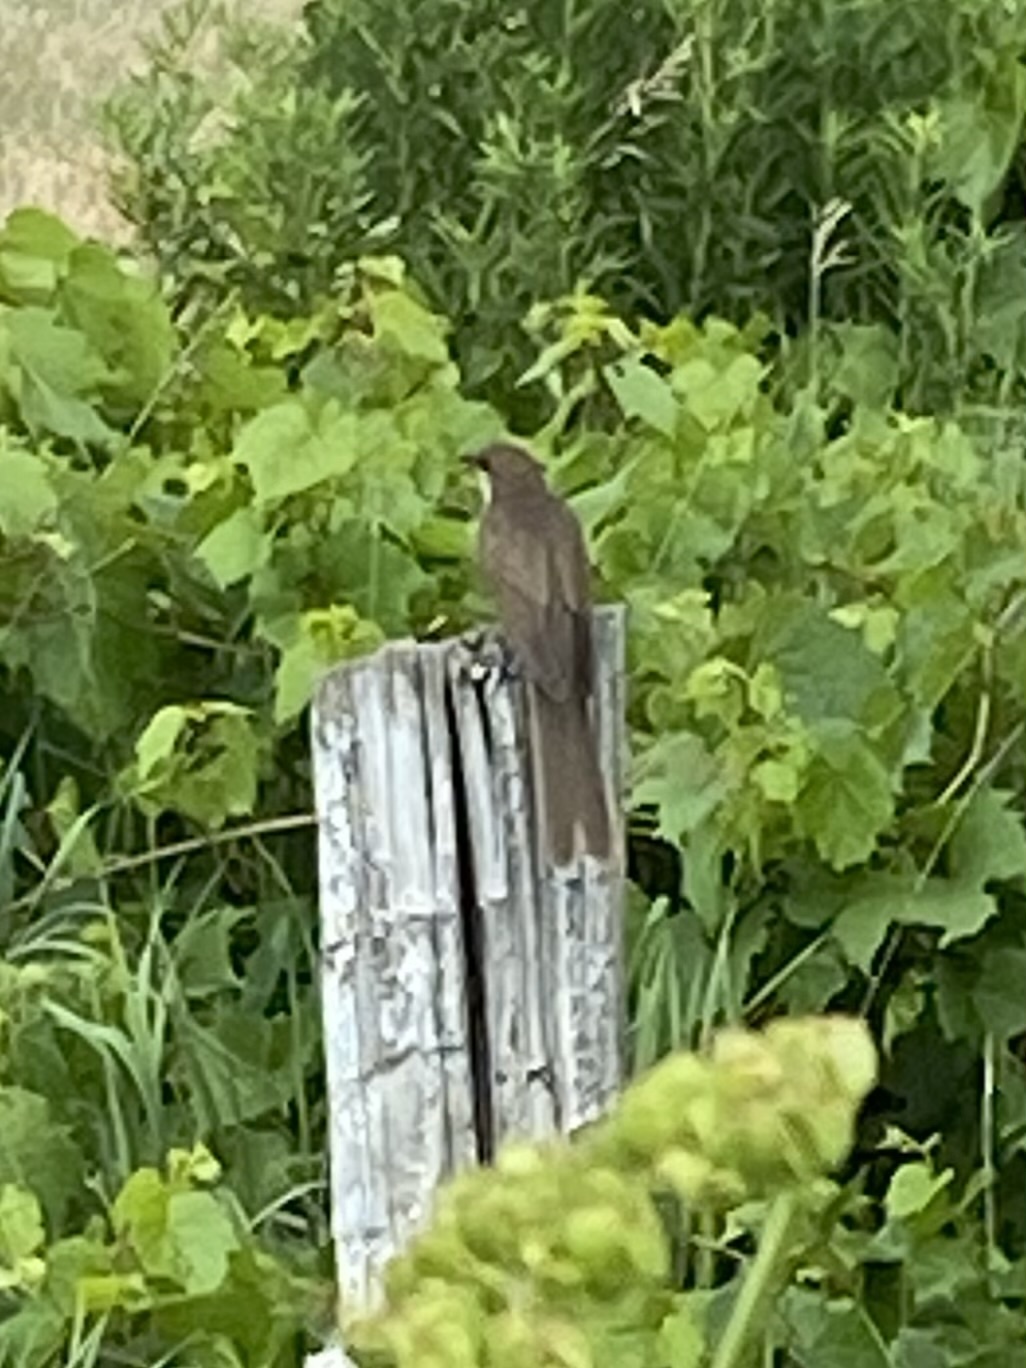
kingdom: Animalia
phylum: Chordata
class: Aves
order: Cuculiformes
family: Cuculidae
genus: Coccyzus
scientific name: Coccyzus erythropthalmus
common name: Black-billed cuckoo
